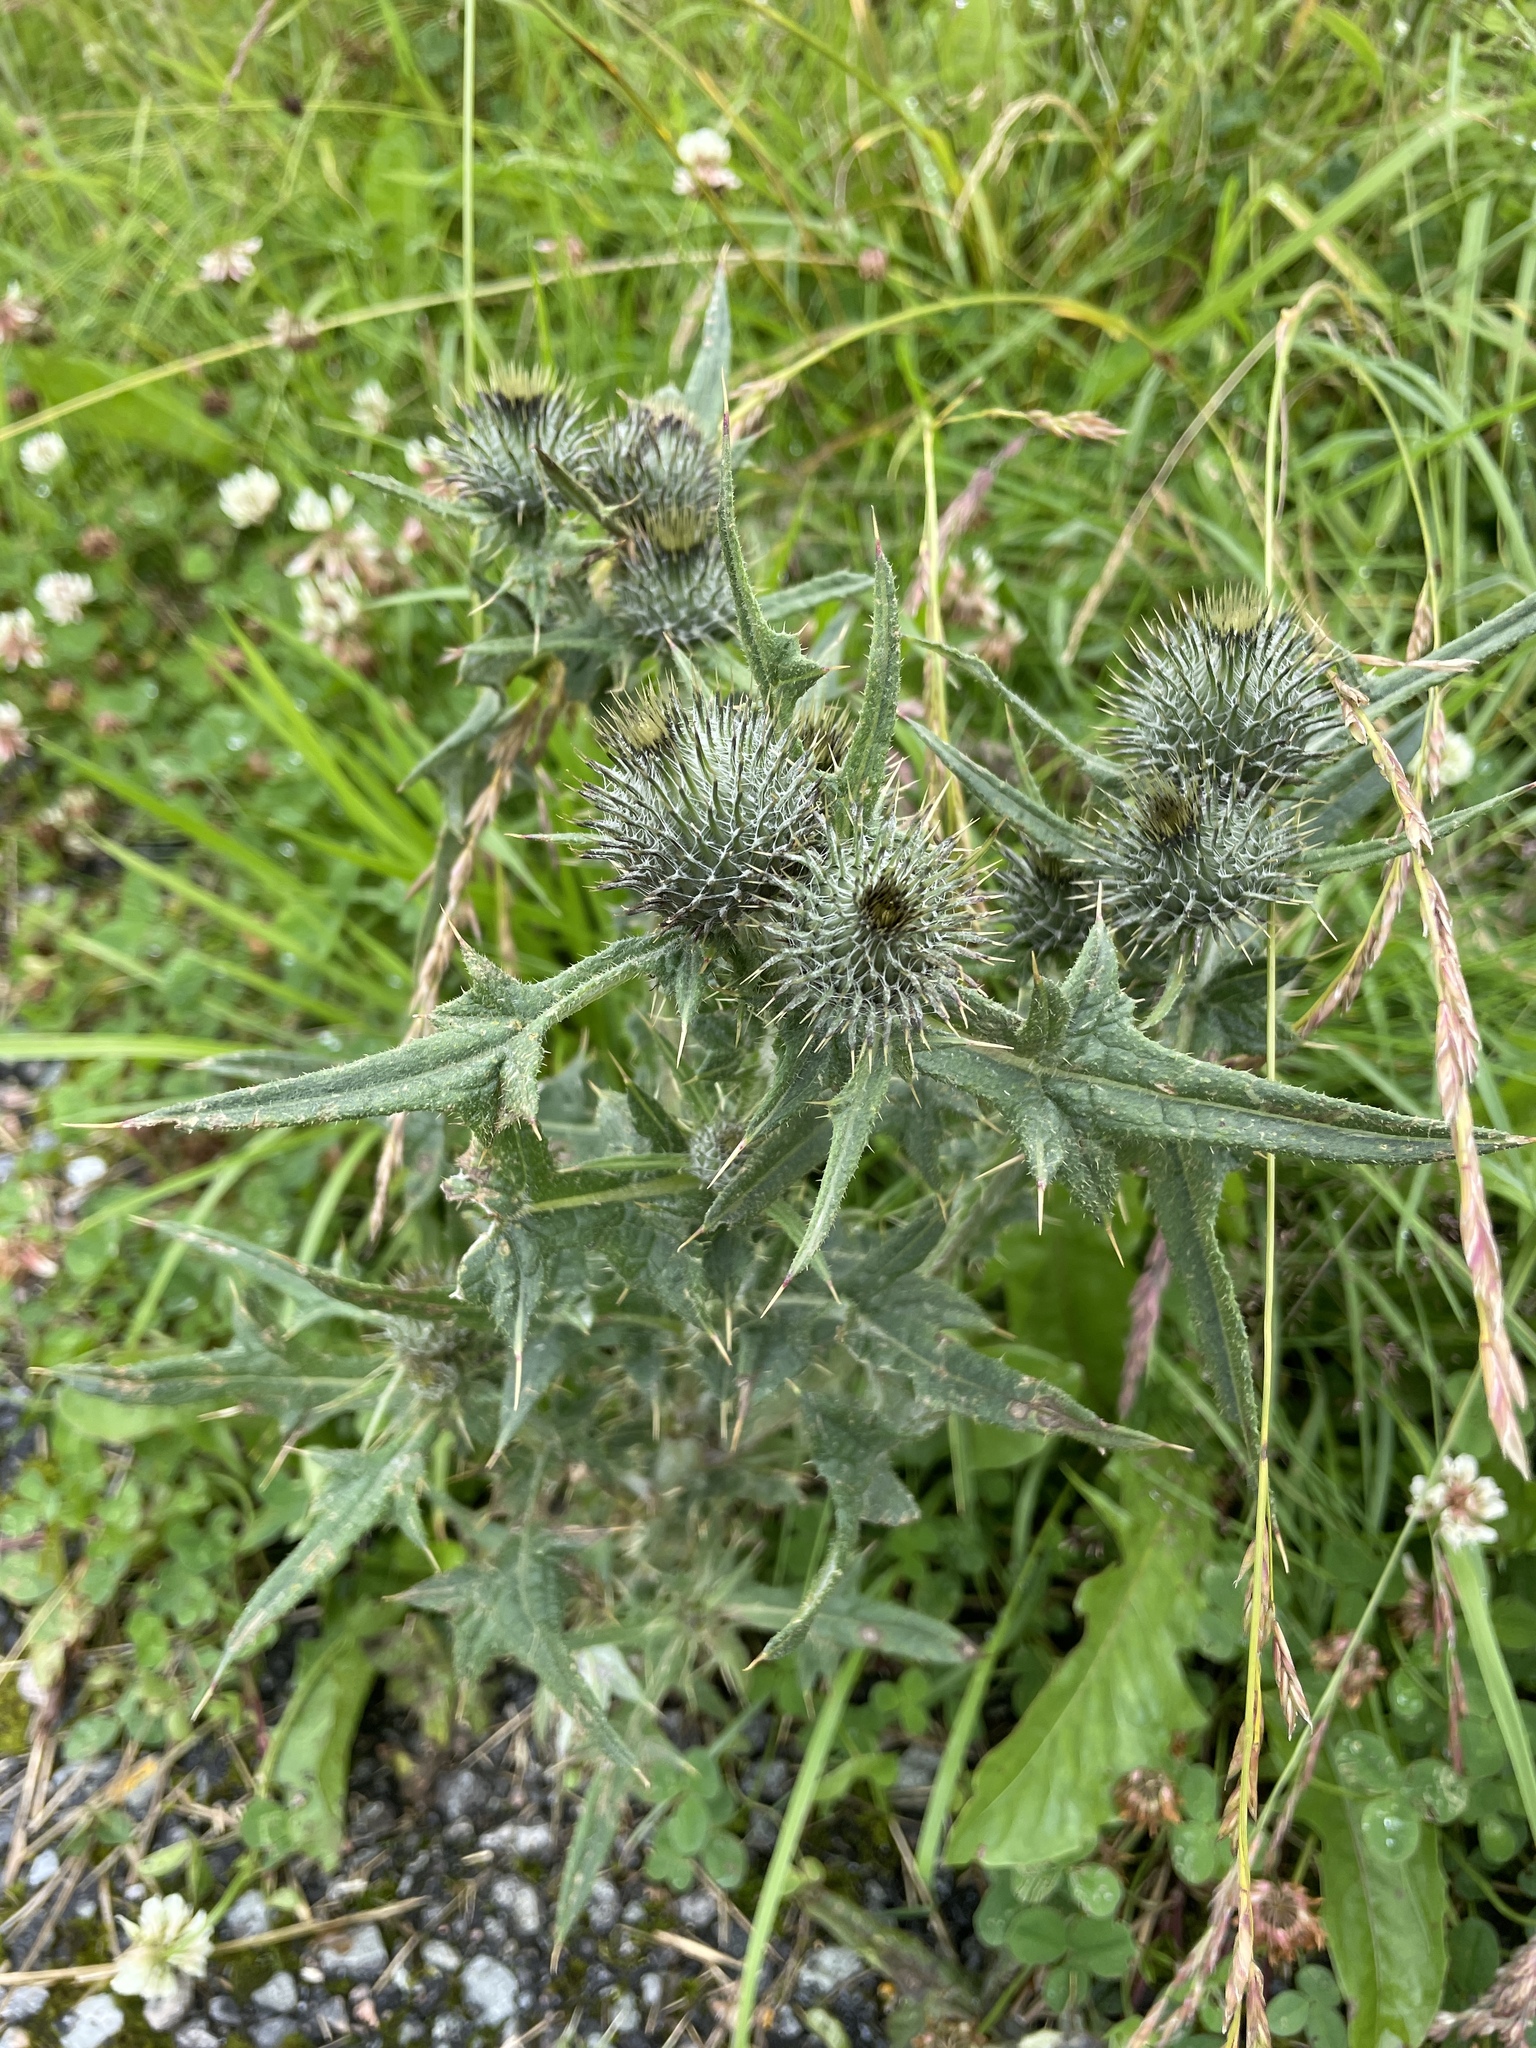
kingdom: Plantae
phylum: Tracheophyta
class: Magnoliopsida
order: Asterales
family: Asteraceae
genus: Cirsium
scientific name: Cirsium vulgare
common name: Bull thistle
